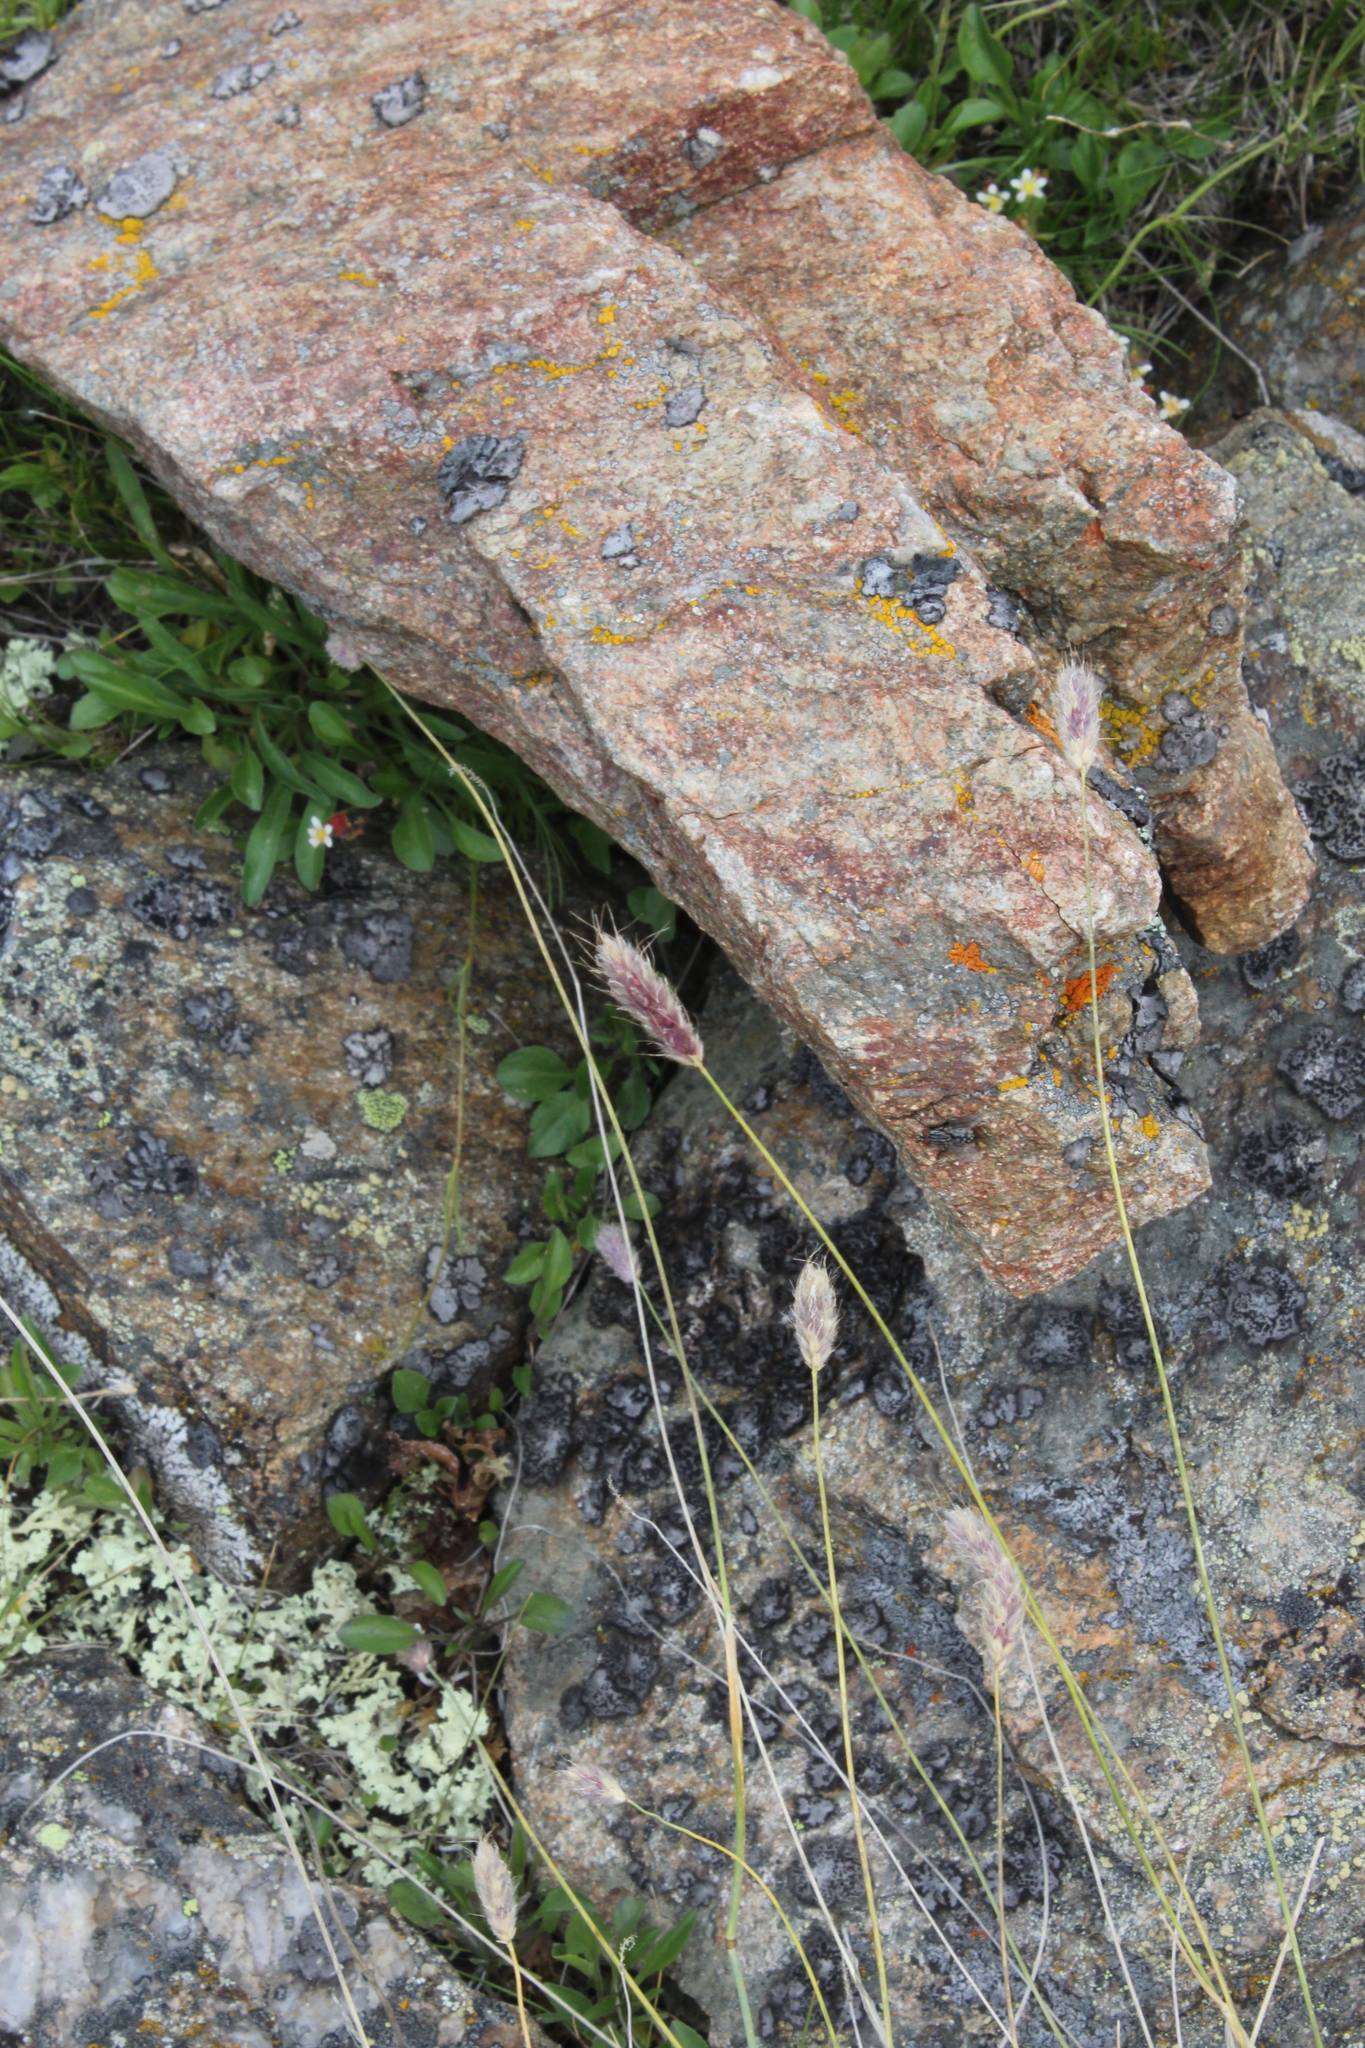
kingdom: Plantae
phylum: Tracheophyta
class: Liliopsida
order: Poales
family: Poaceae
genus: Alopecurus
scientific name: Alopecurus glacialis
